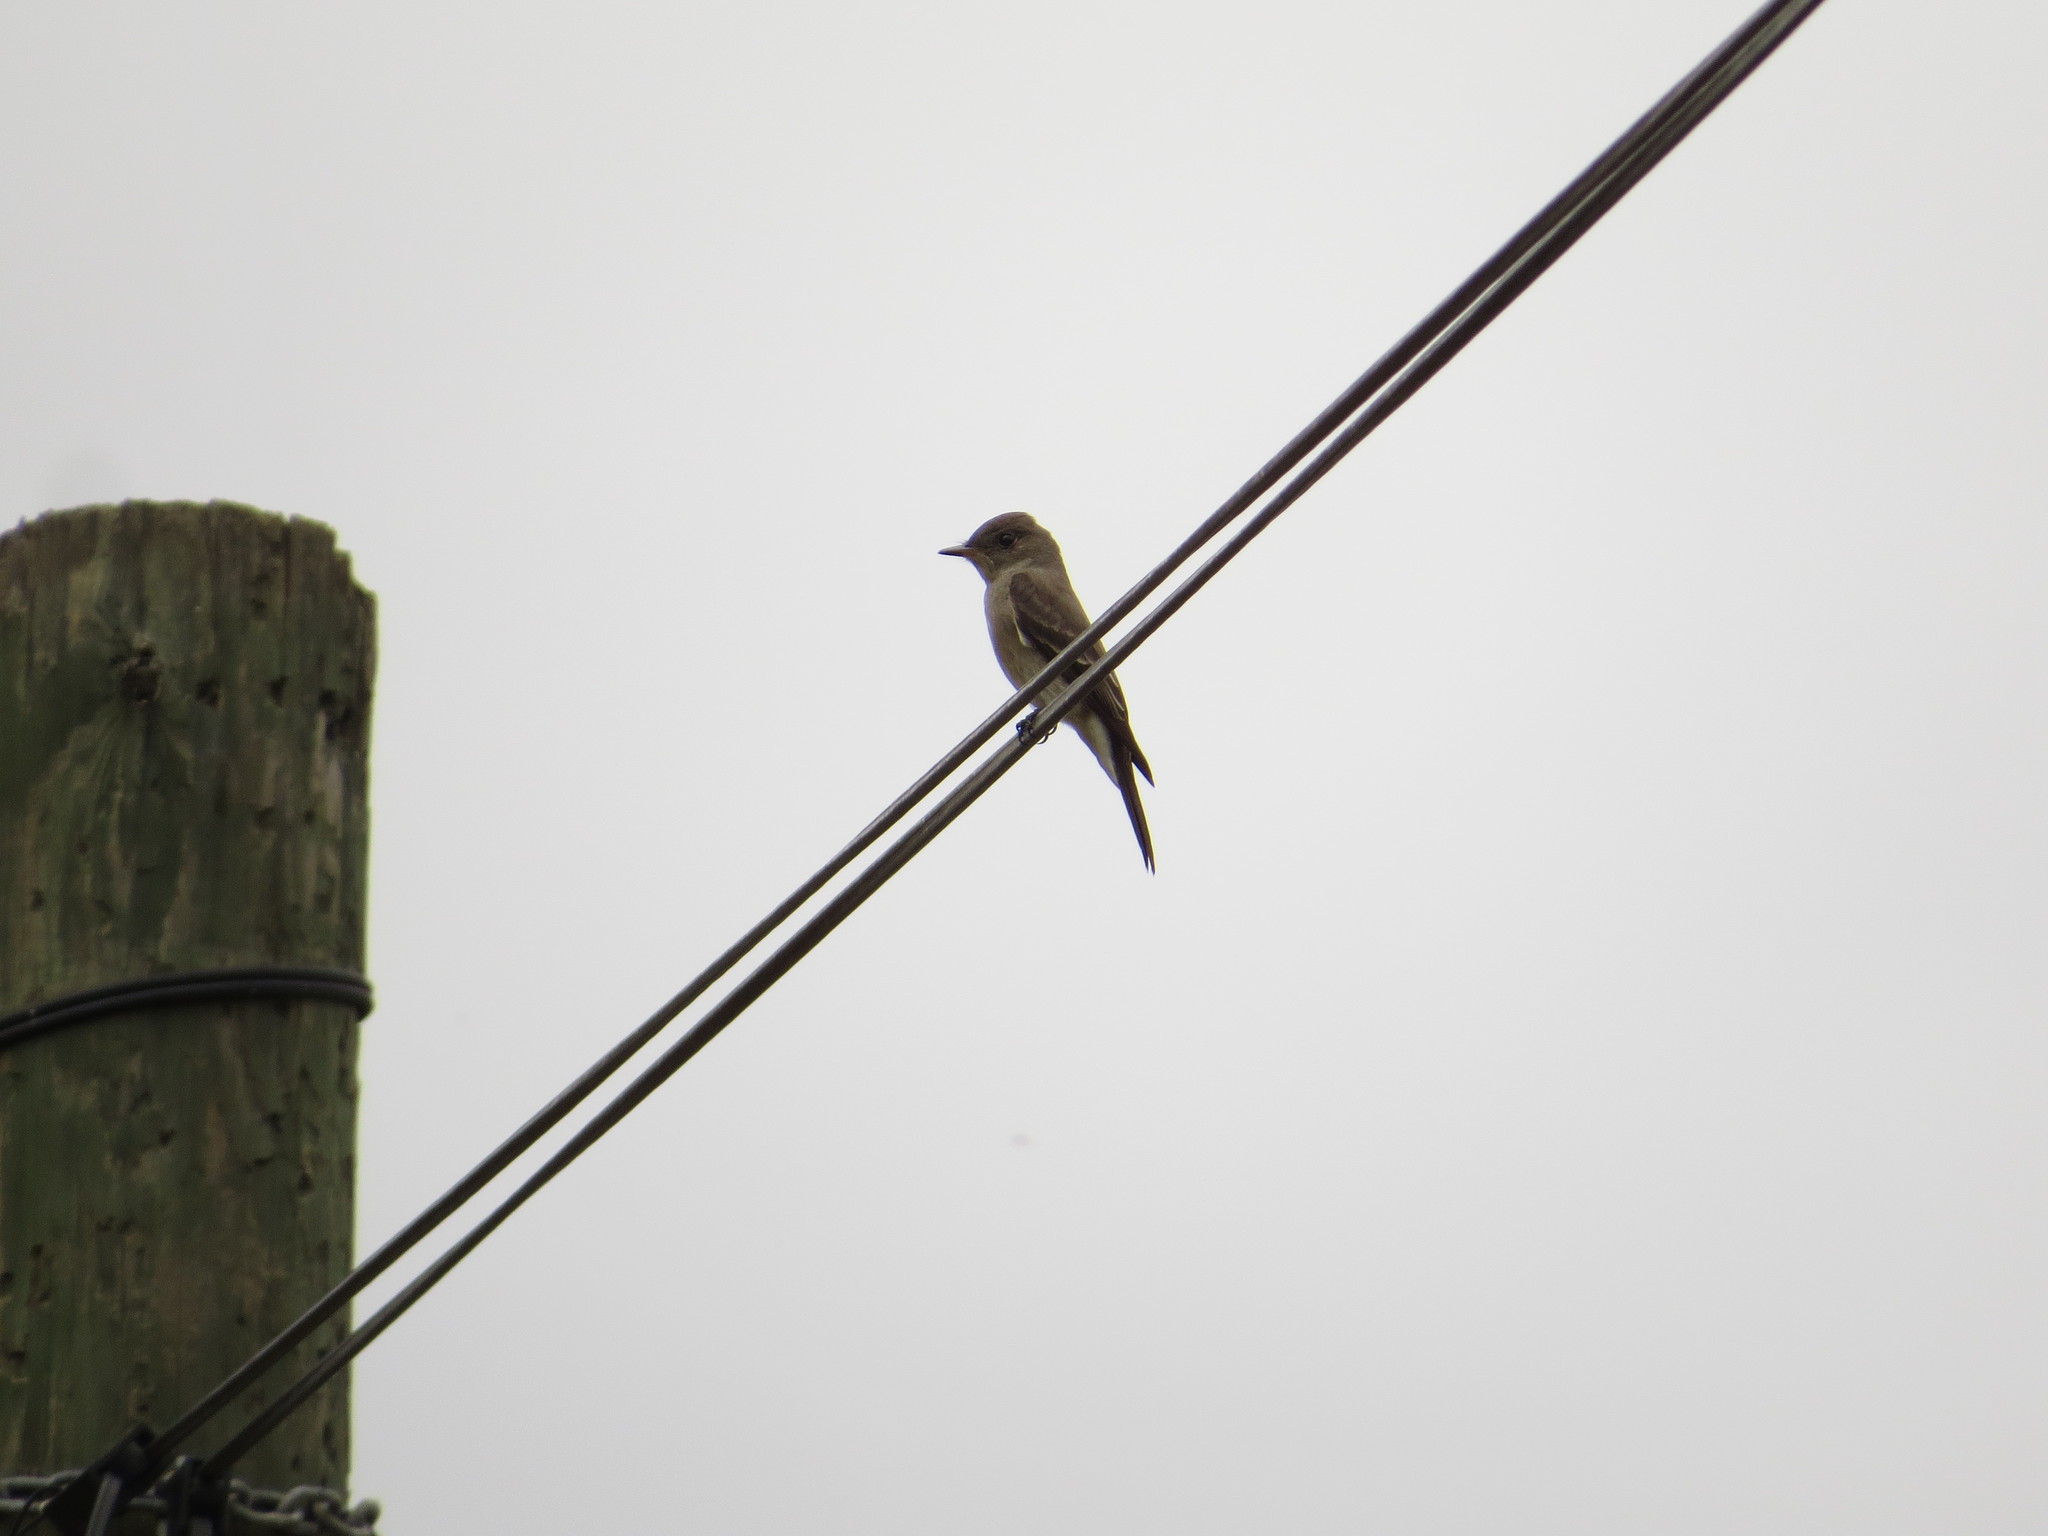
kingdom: Animalia
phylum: Chordata
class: Aves
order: Passeriformes
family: Tyrannidae
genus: Contopus
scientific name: Contopus sordidulus
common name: Western wood-pewee
